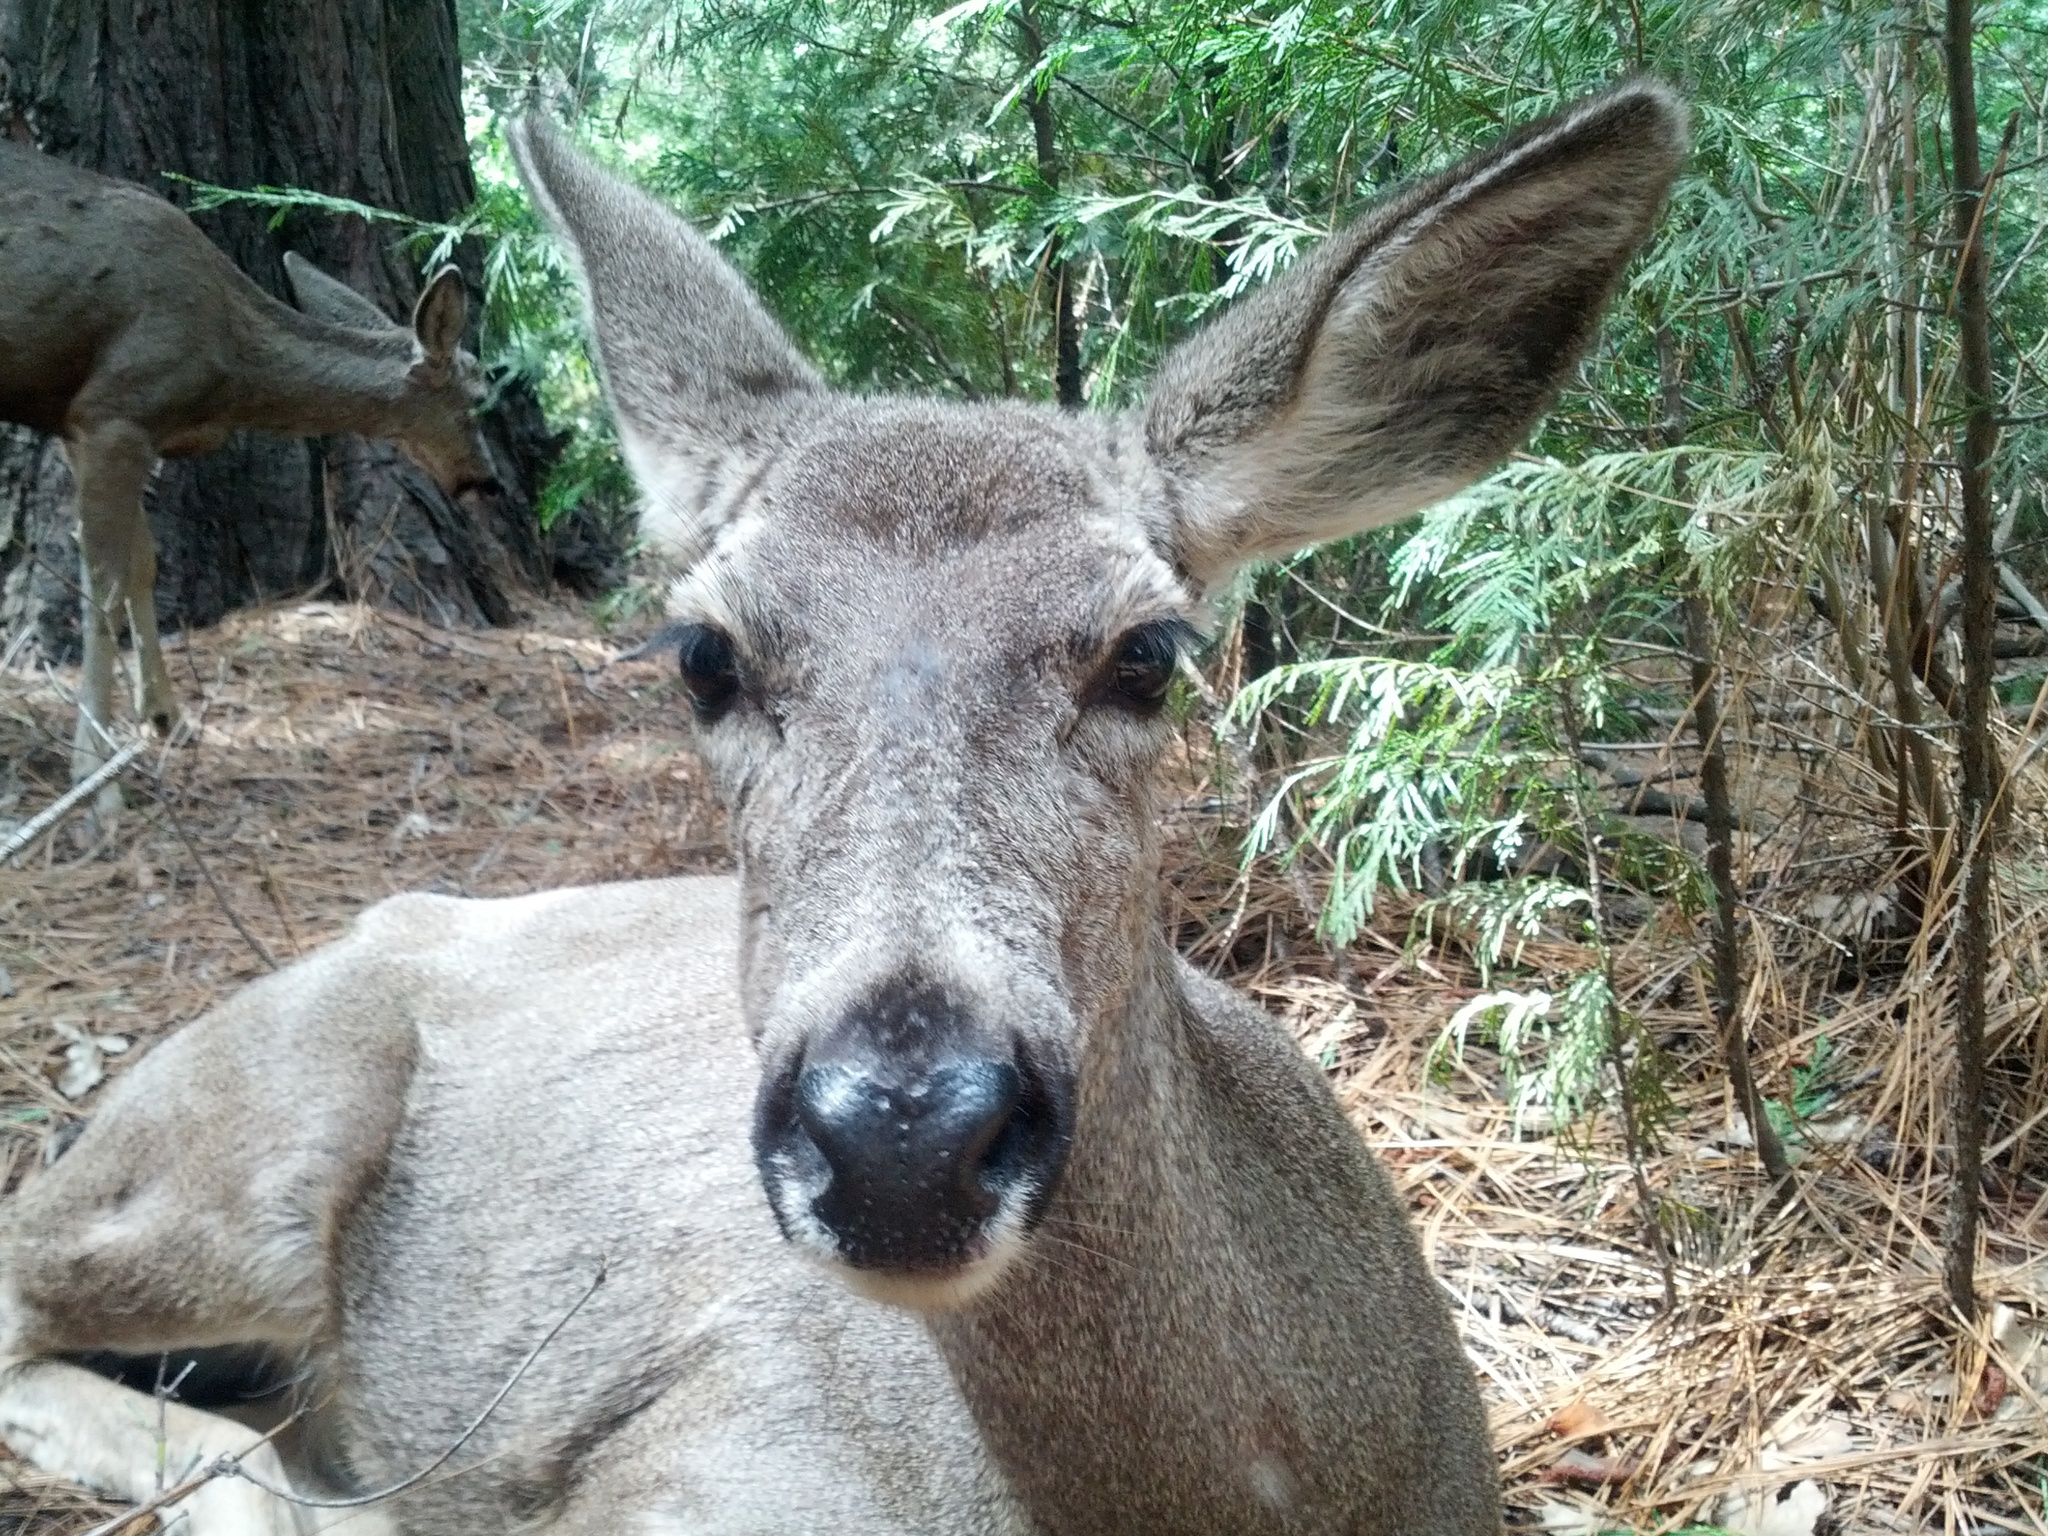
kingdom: Animalia
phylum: Chordata
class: Mammalia
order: Artiodactyla
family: Cervidae
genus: Odocoileus
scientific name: Odocoileus hemionus
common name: Mule deer
